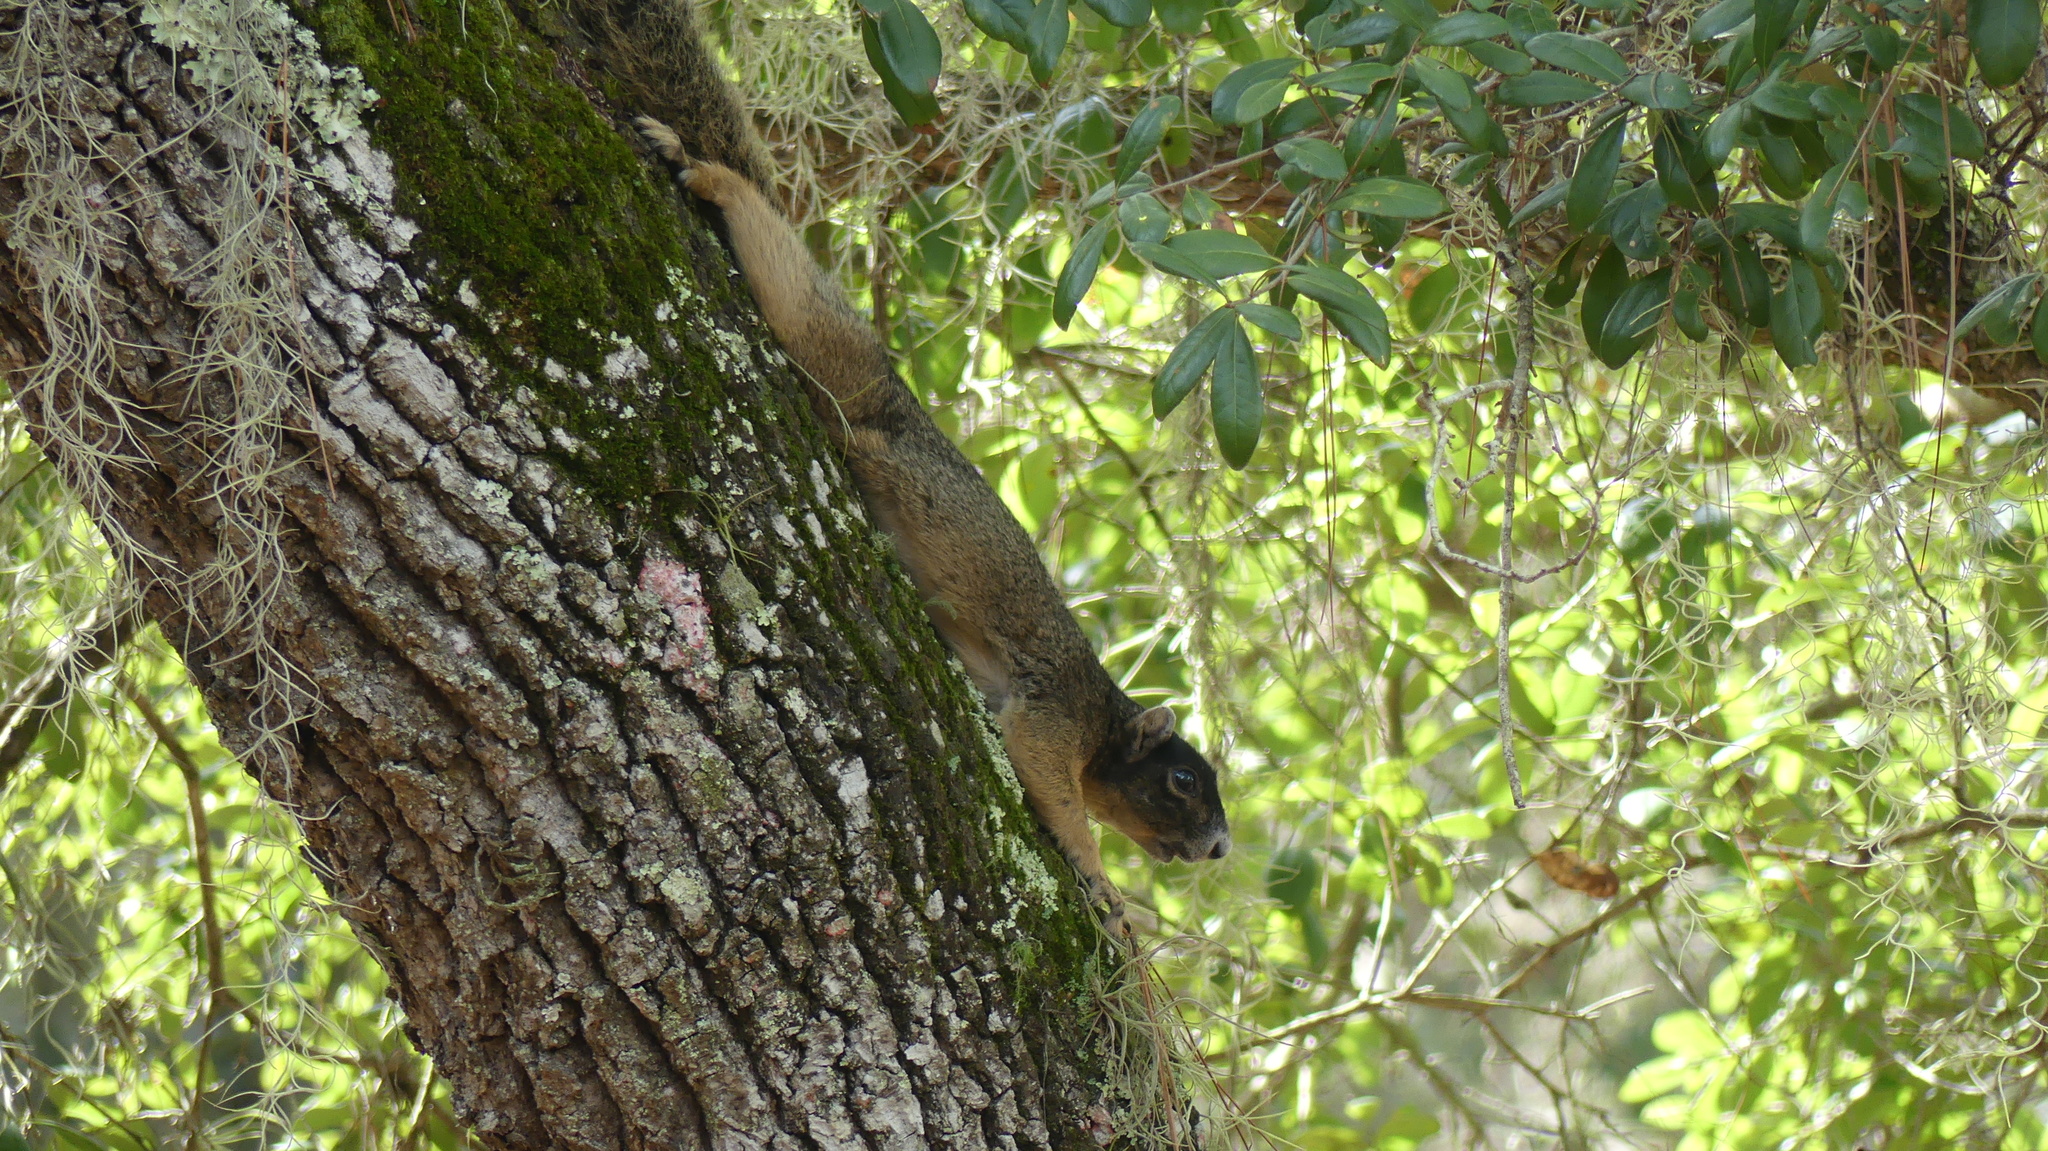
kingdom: Animalia
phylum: Chordata
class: Mammalia
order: Rodentia
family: Sciuridae
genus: Sciurus
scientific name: Sciurus niger
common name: Fox squirrel
